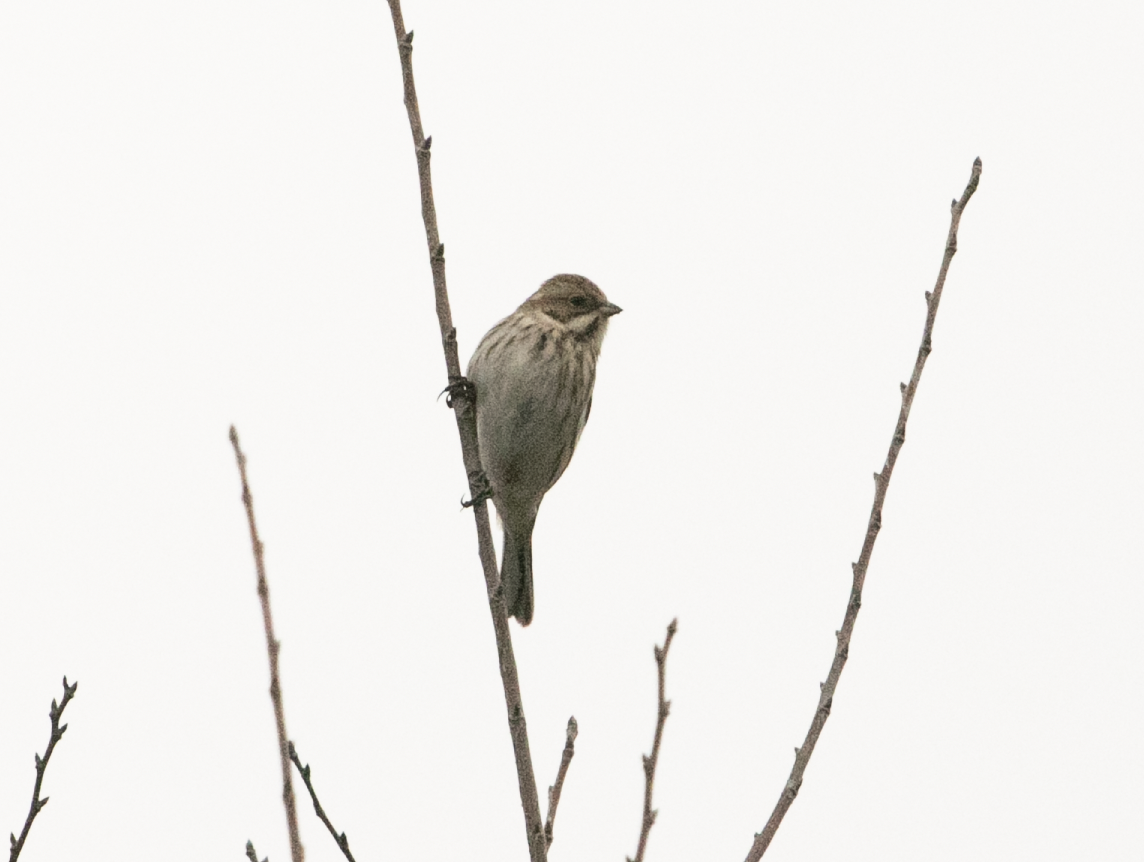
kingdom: Animalia
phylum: Chordata
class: Aves
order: Passeriformes
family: Emberizidae
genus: Emberiza
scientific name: Emberiza schoeniclus
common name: Reed bunting
